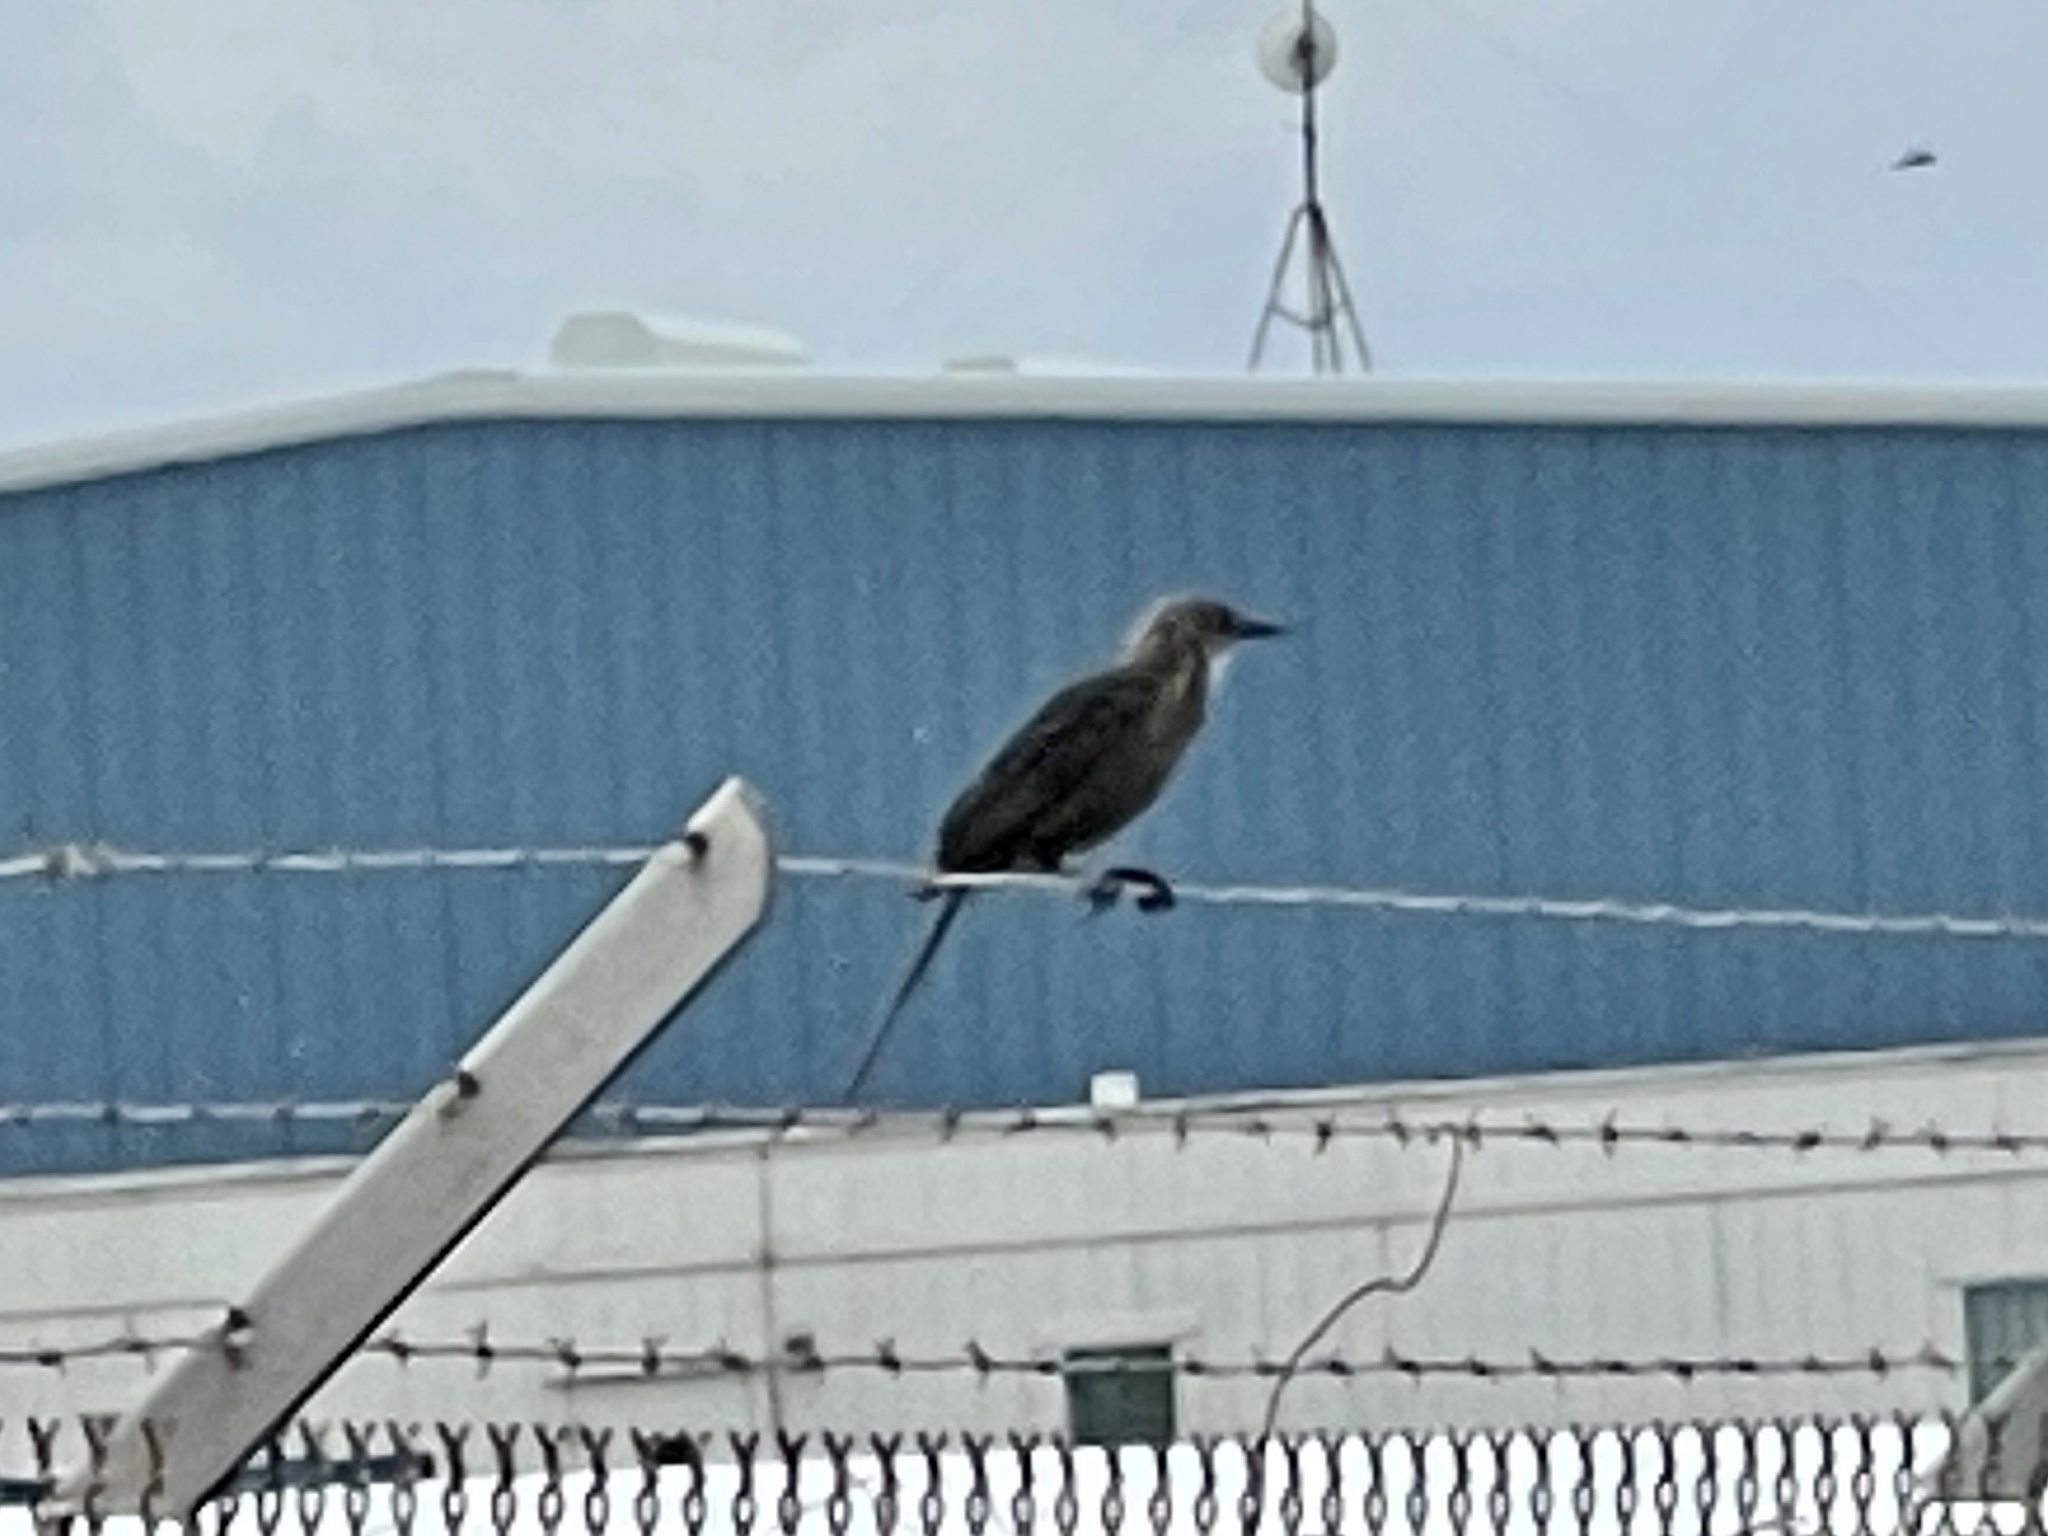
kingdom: Animalia
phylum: Chordata
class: Aves
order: Passeriformes
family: Icteridae
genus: Quiscalus
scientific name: Quiscalus mexicanus
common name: Great-tailed grackle
